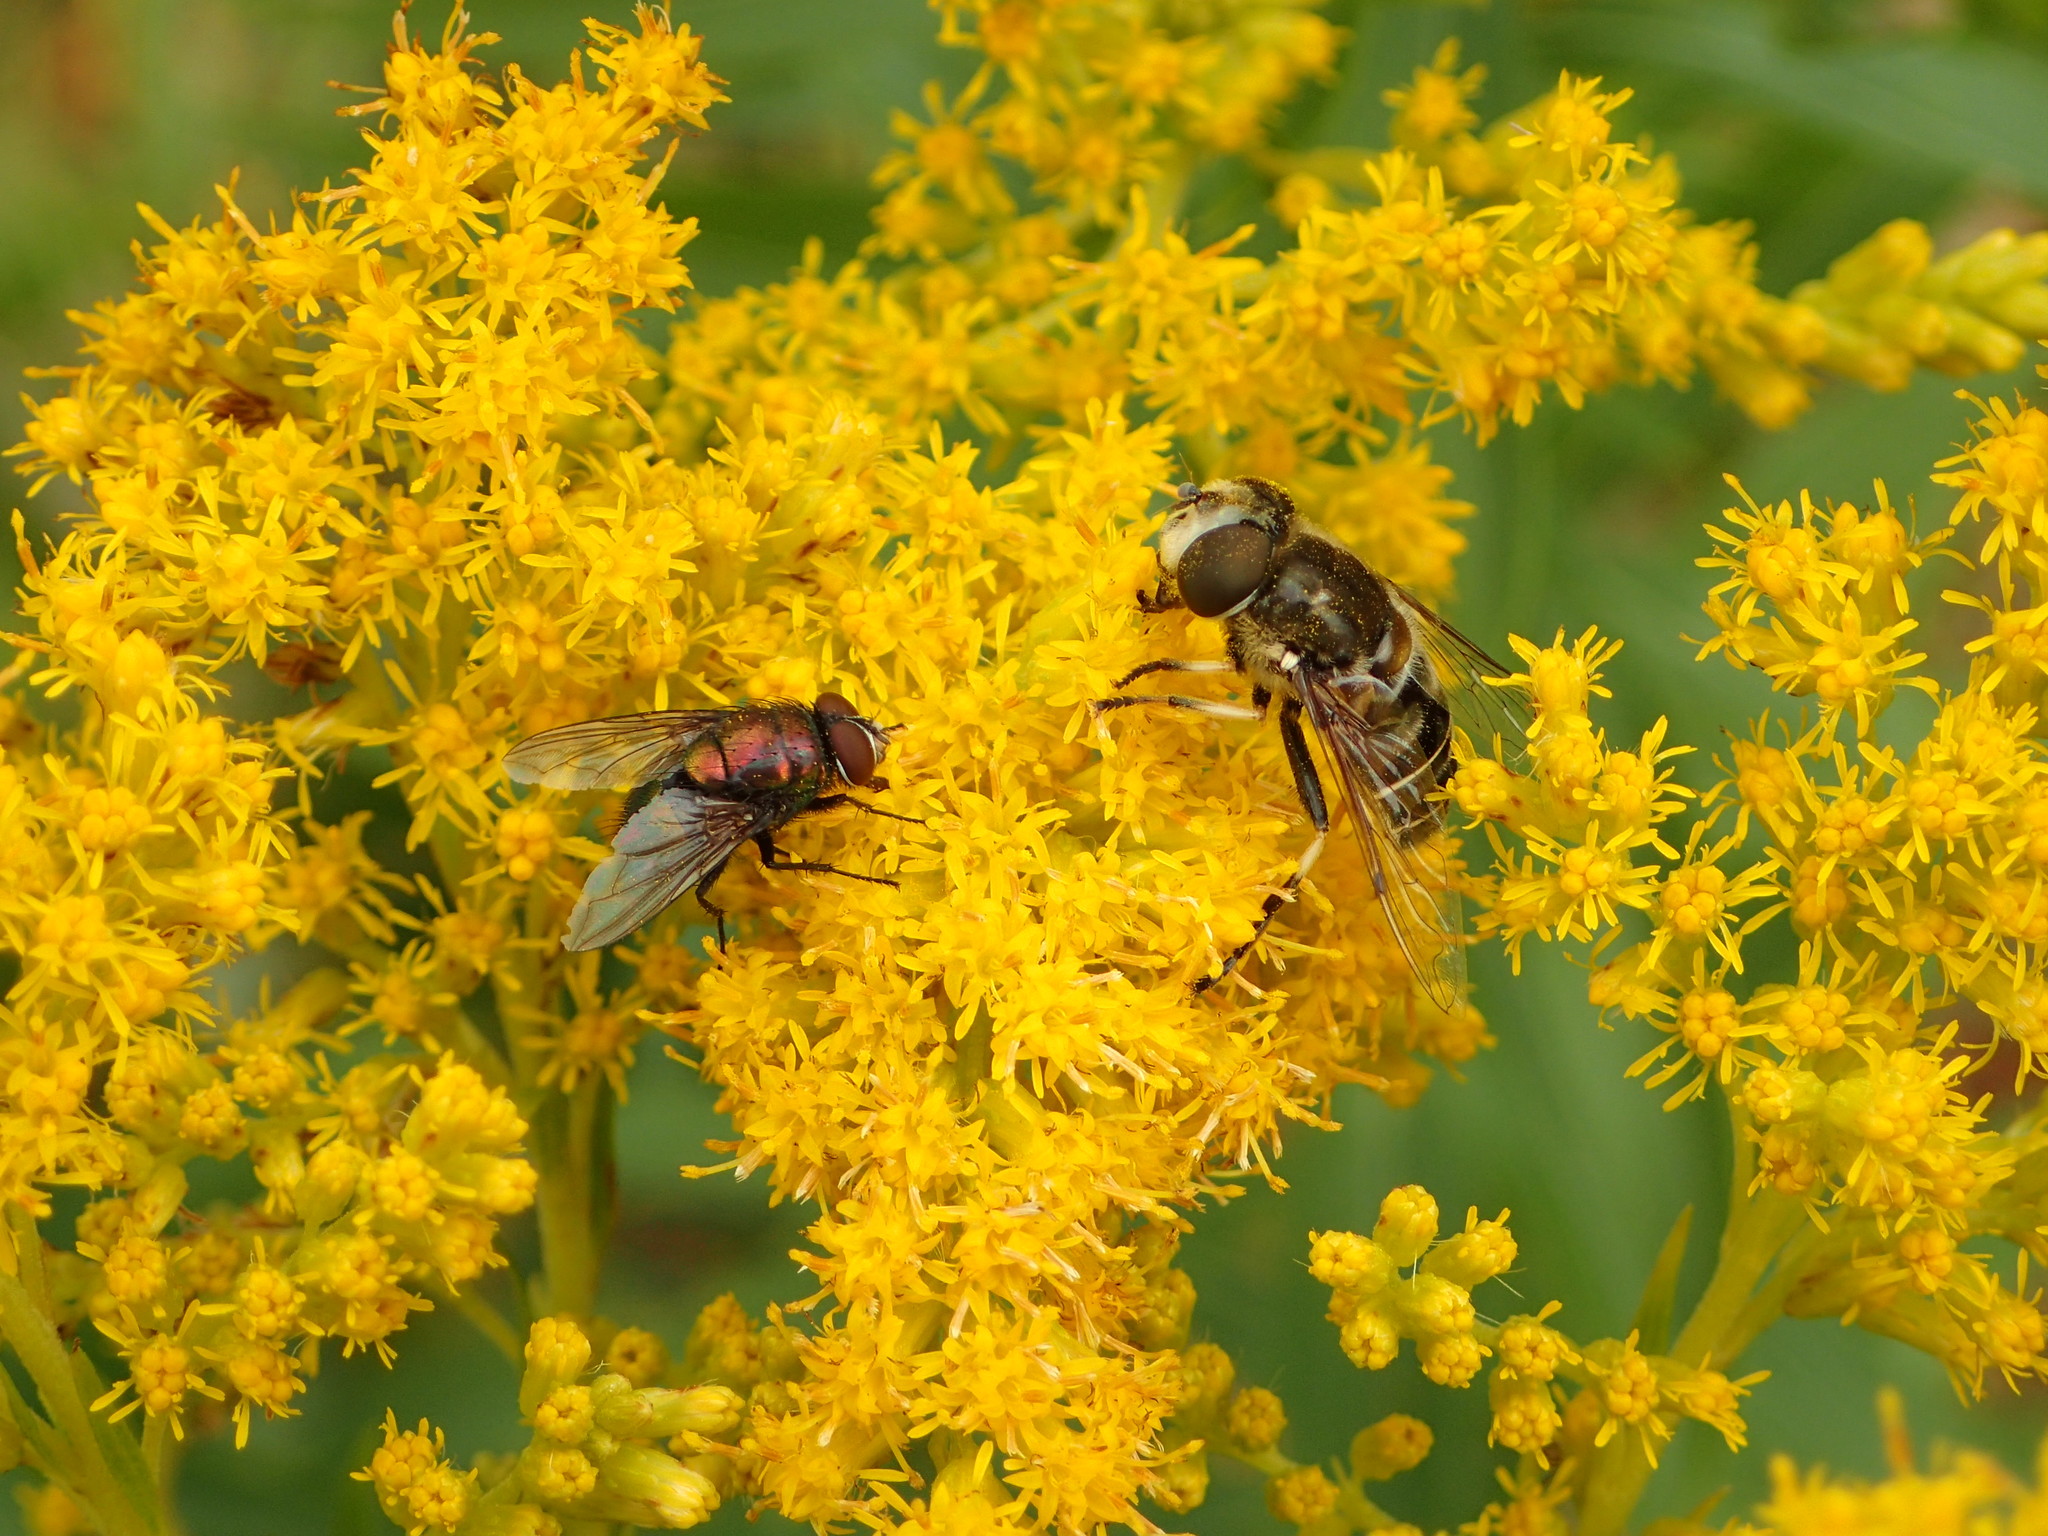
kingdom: Animalia
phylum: Arthropoda
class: Insecta
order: Diptera
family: Syrphidae
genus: Eristalis
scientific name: Eristalis dimidiata
